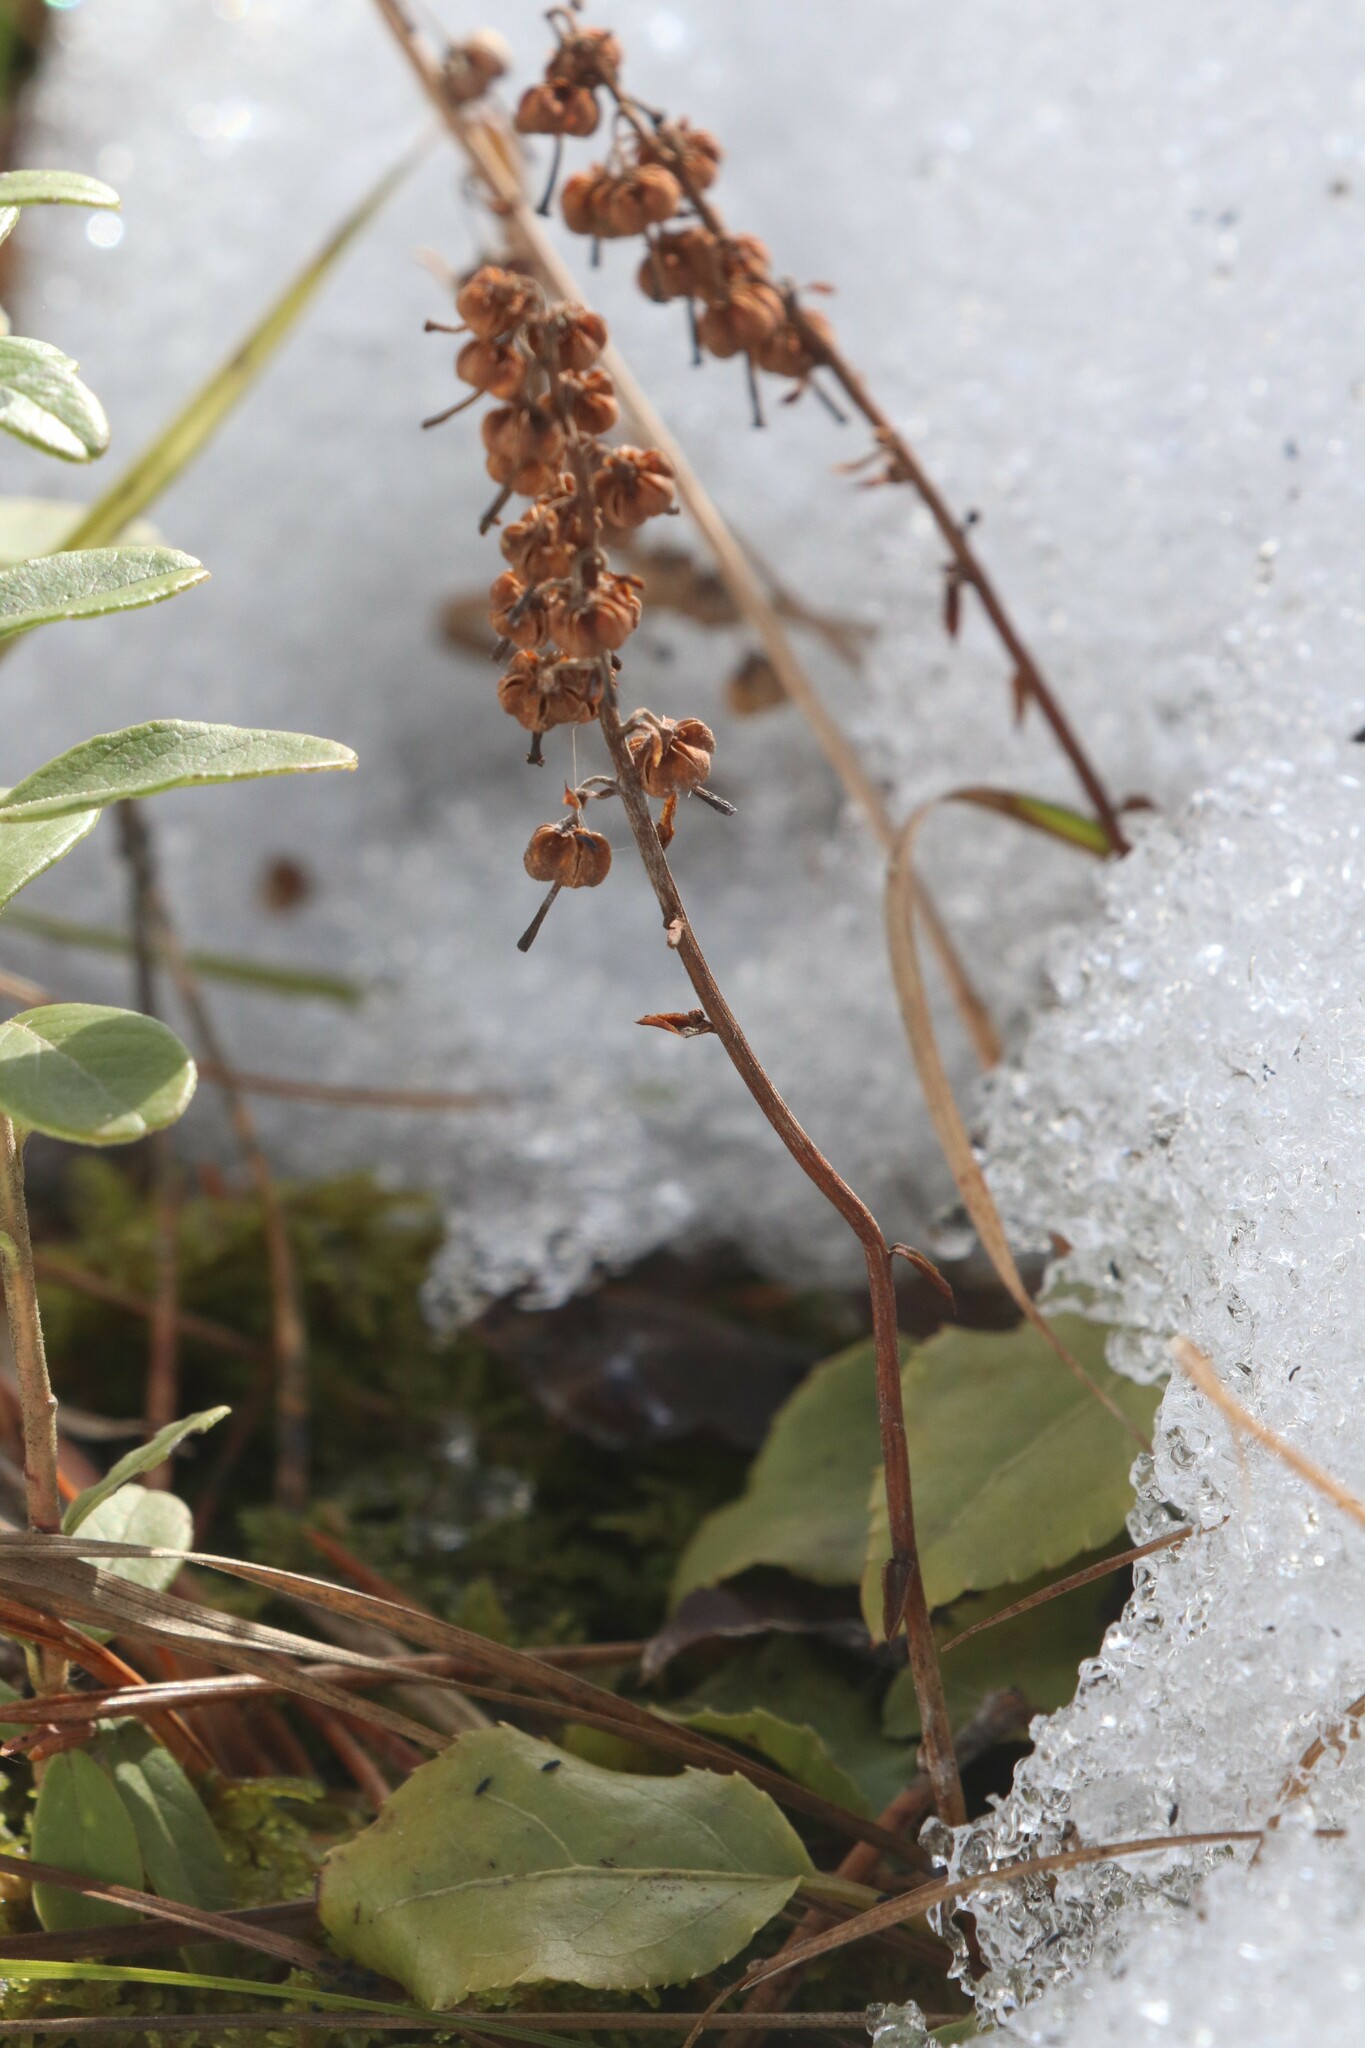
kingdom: Plantae
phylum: Tracheophyta
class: Magnoliopsida
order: Ericales
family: Ericaceae
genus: Orthilia
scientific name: Orthilia secunda
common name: One-sided orthilia
